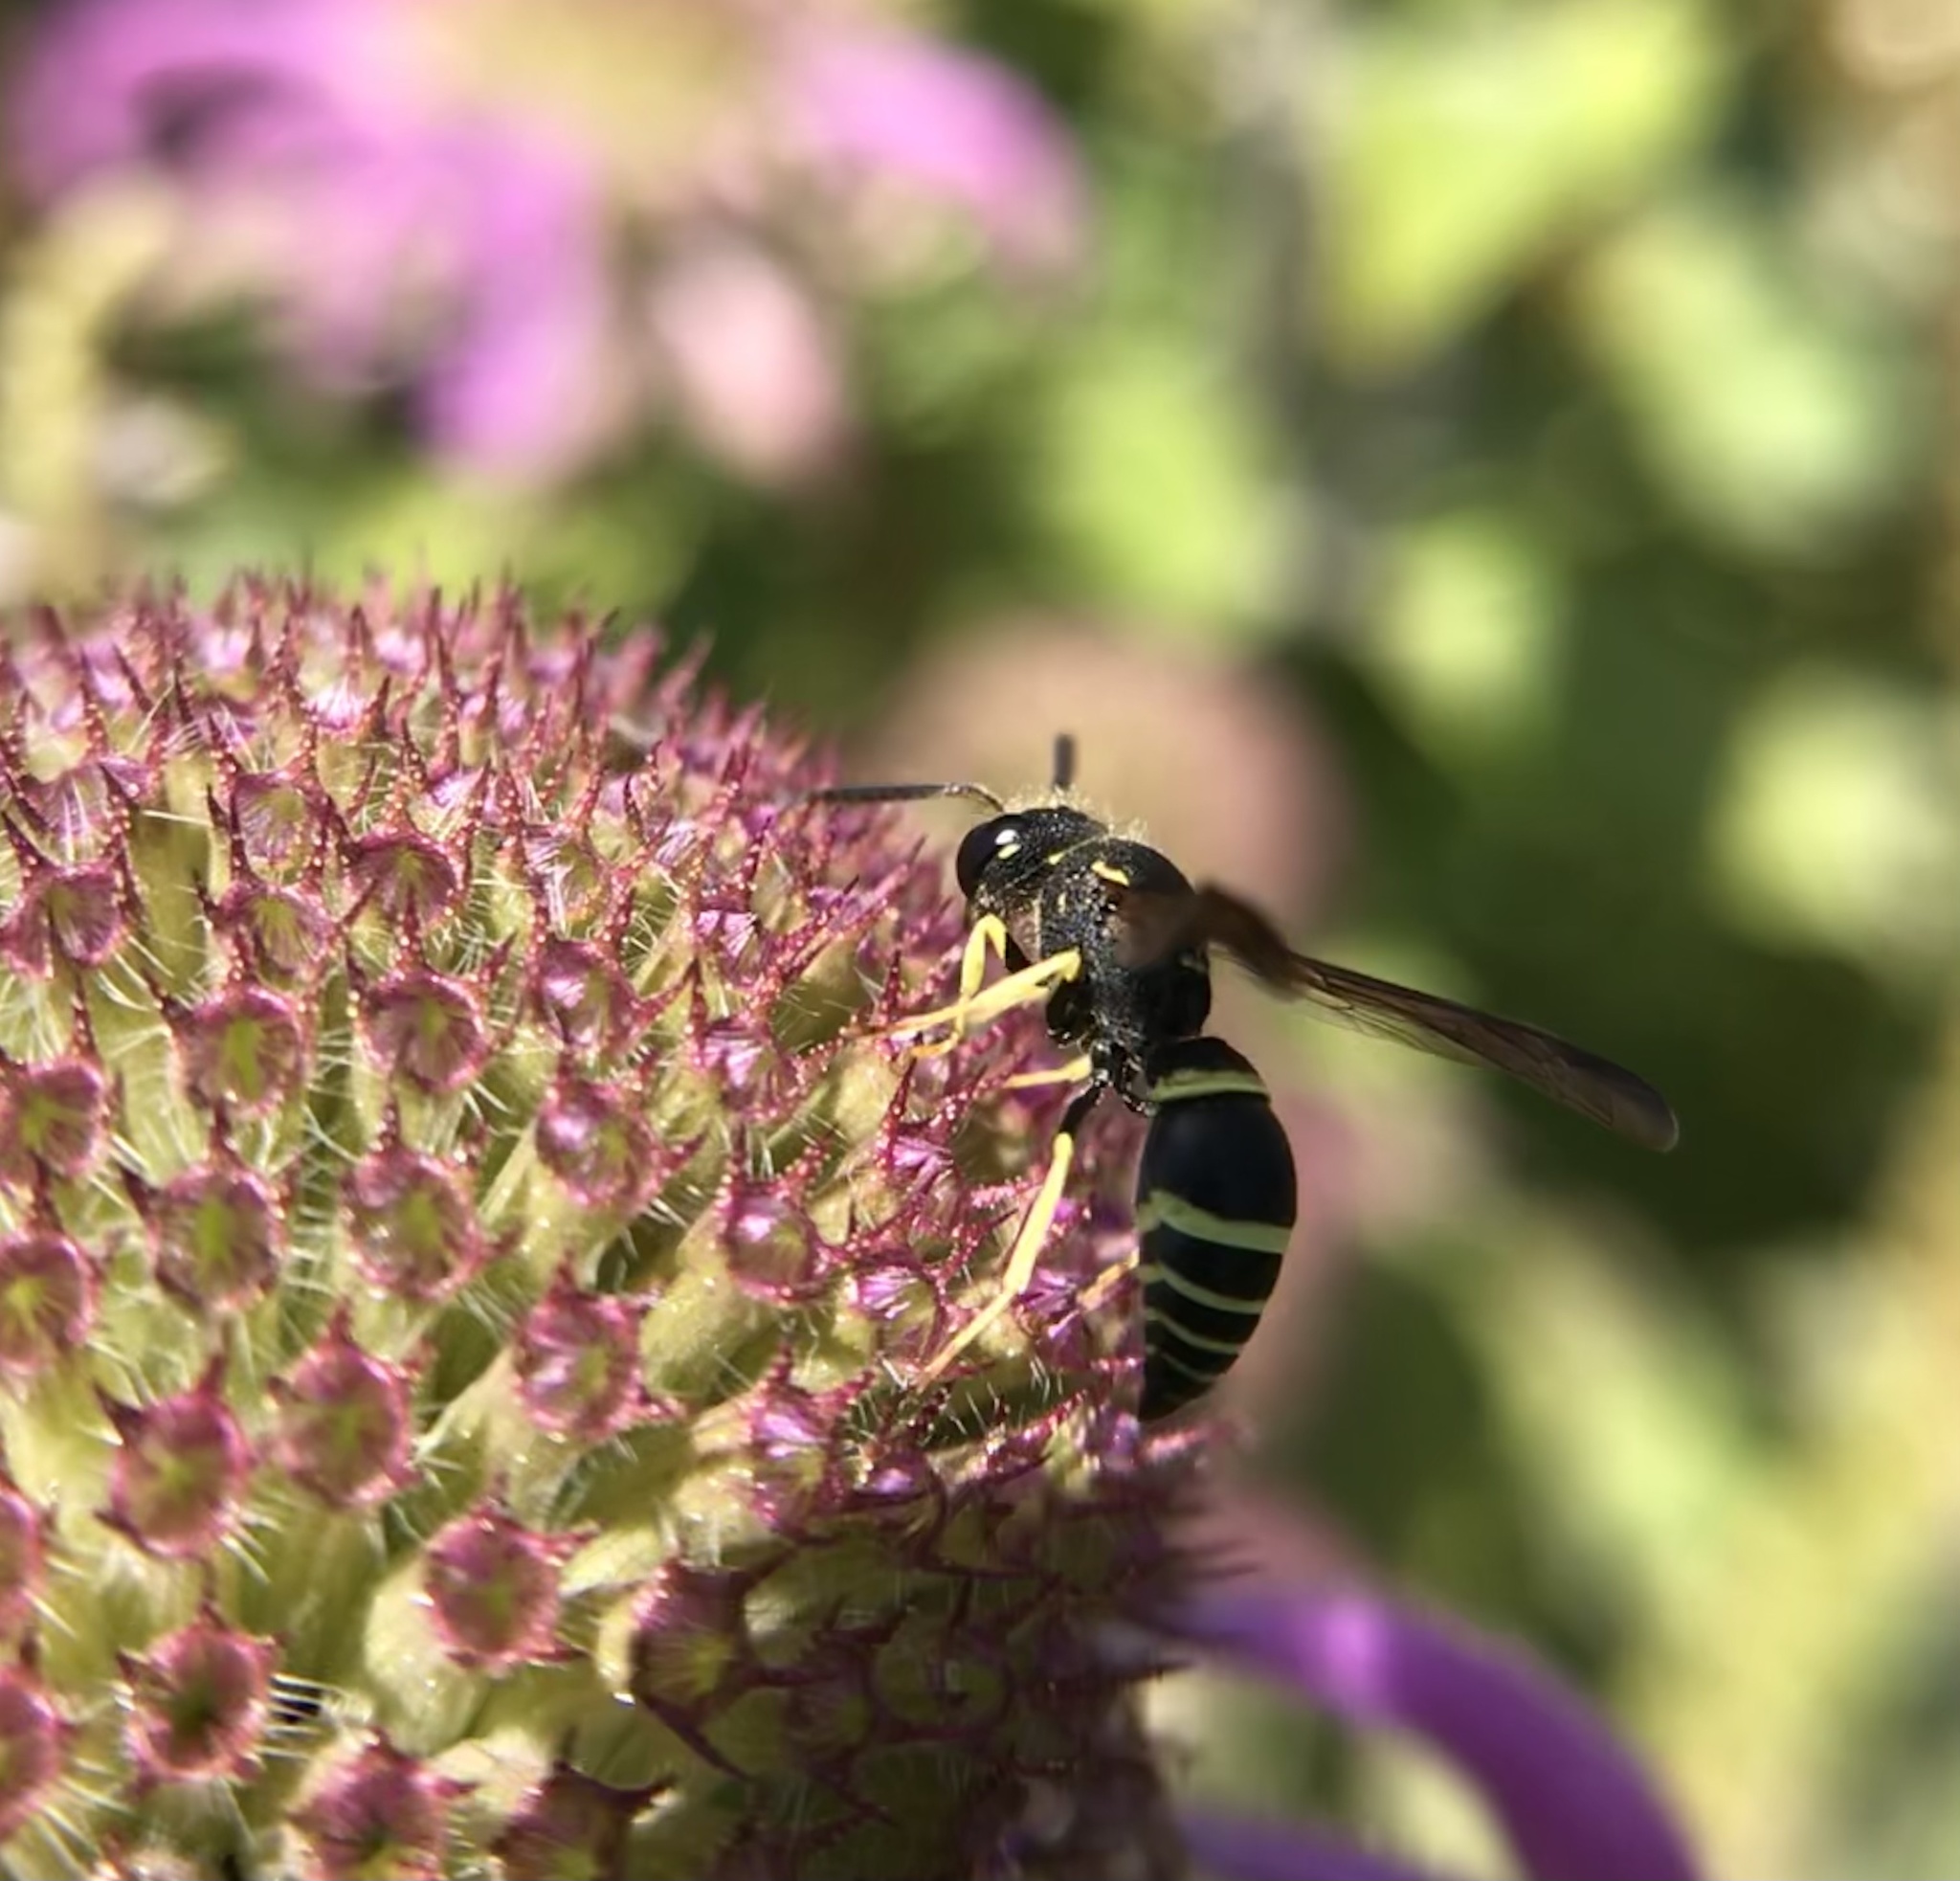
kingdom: Animalia
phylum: Arthropoda
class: Insecta
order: Hymenoptera
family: Eumenidae
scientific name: Eumenidae
